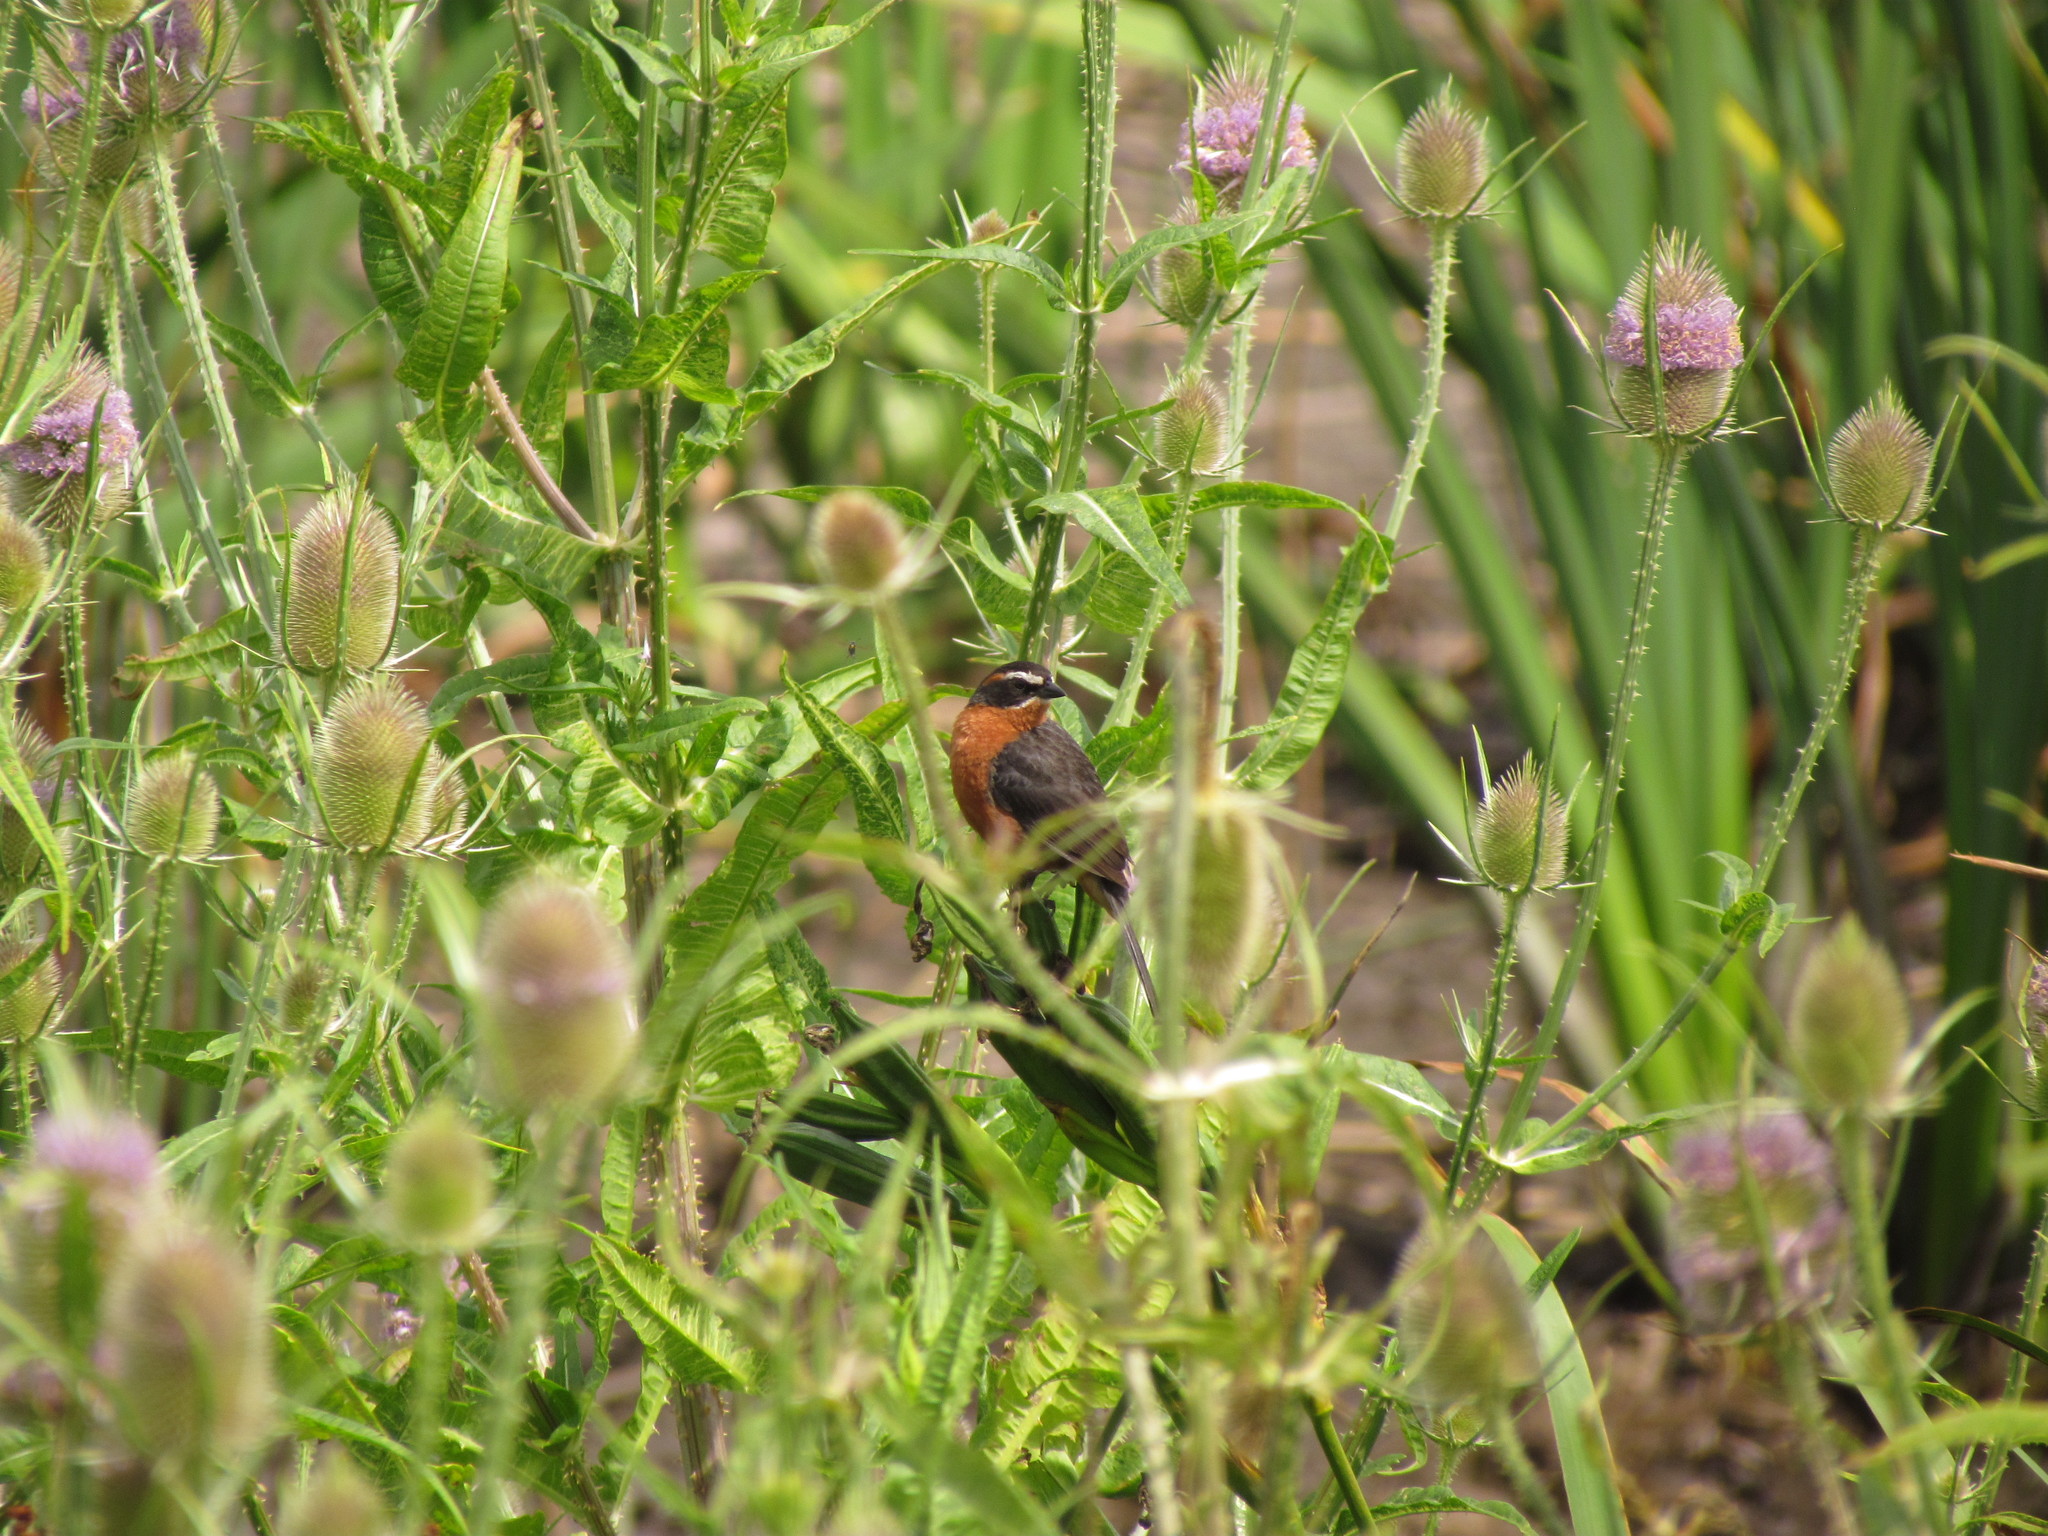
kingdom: Animalia
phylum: Chordata
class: Aves
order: Passeriformes
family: Thraupidae
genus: Poospiza
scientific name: Poospiza nigrorufa
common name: Black-and-rufous warbling finch
